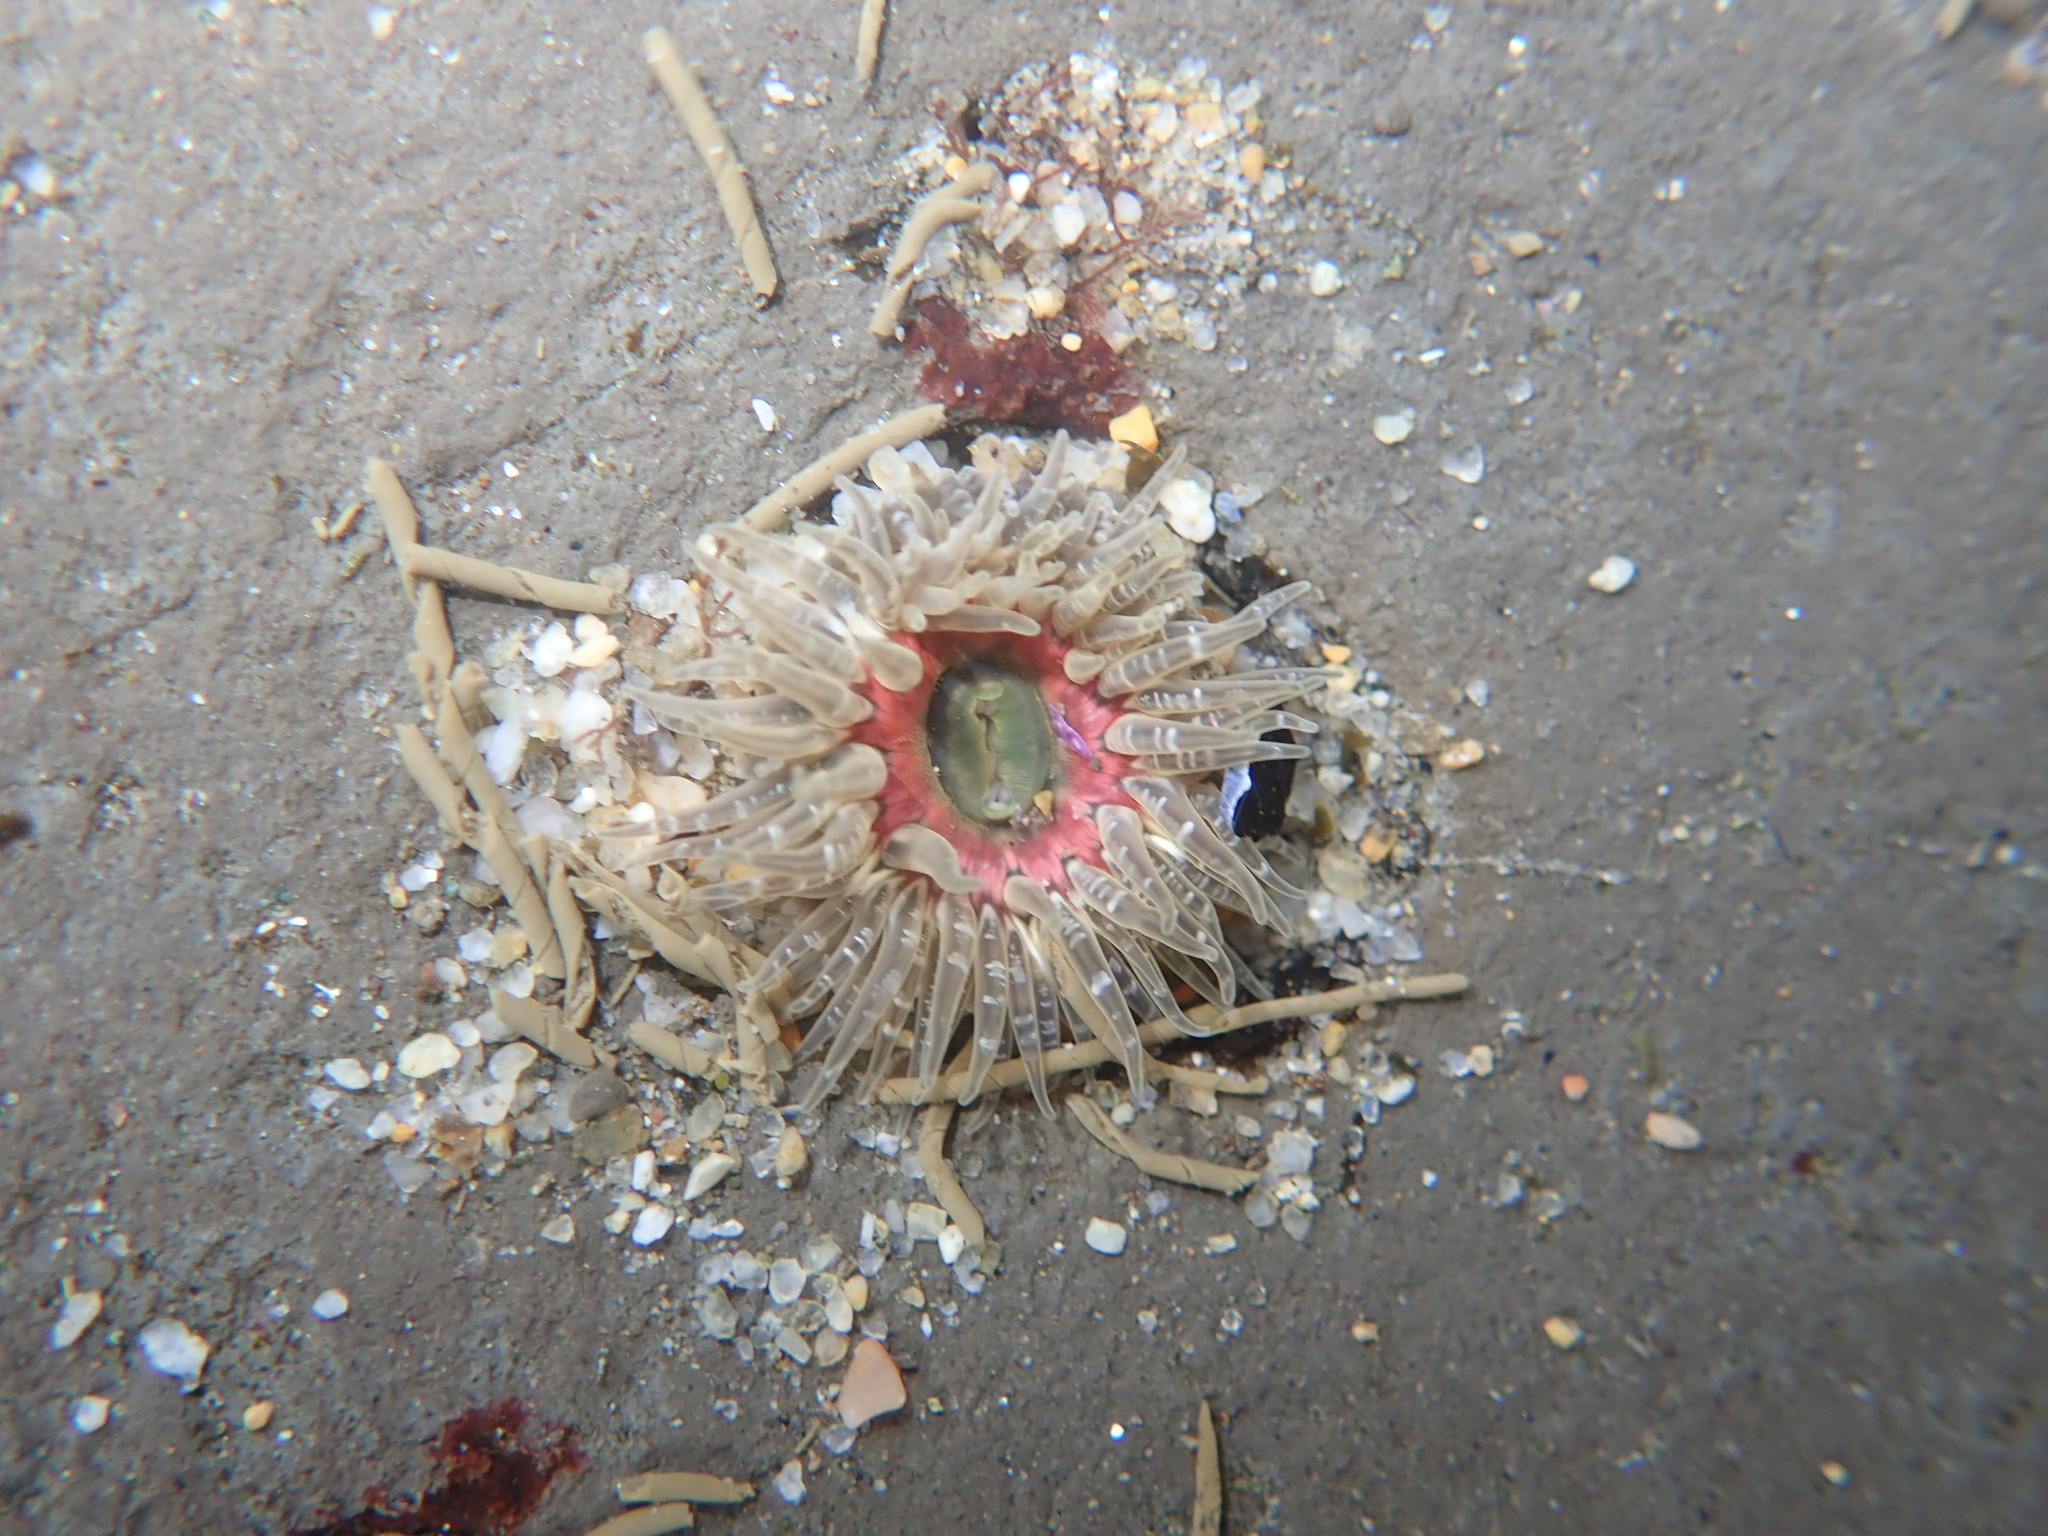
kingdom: Animalia
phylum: Cnidaria
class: Anthozoa
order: Actiniaria
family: Actiniidae
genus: Anthopleura
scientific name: Anthopleura artemisia
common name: Buried sea anemone
